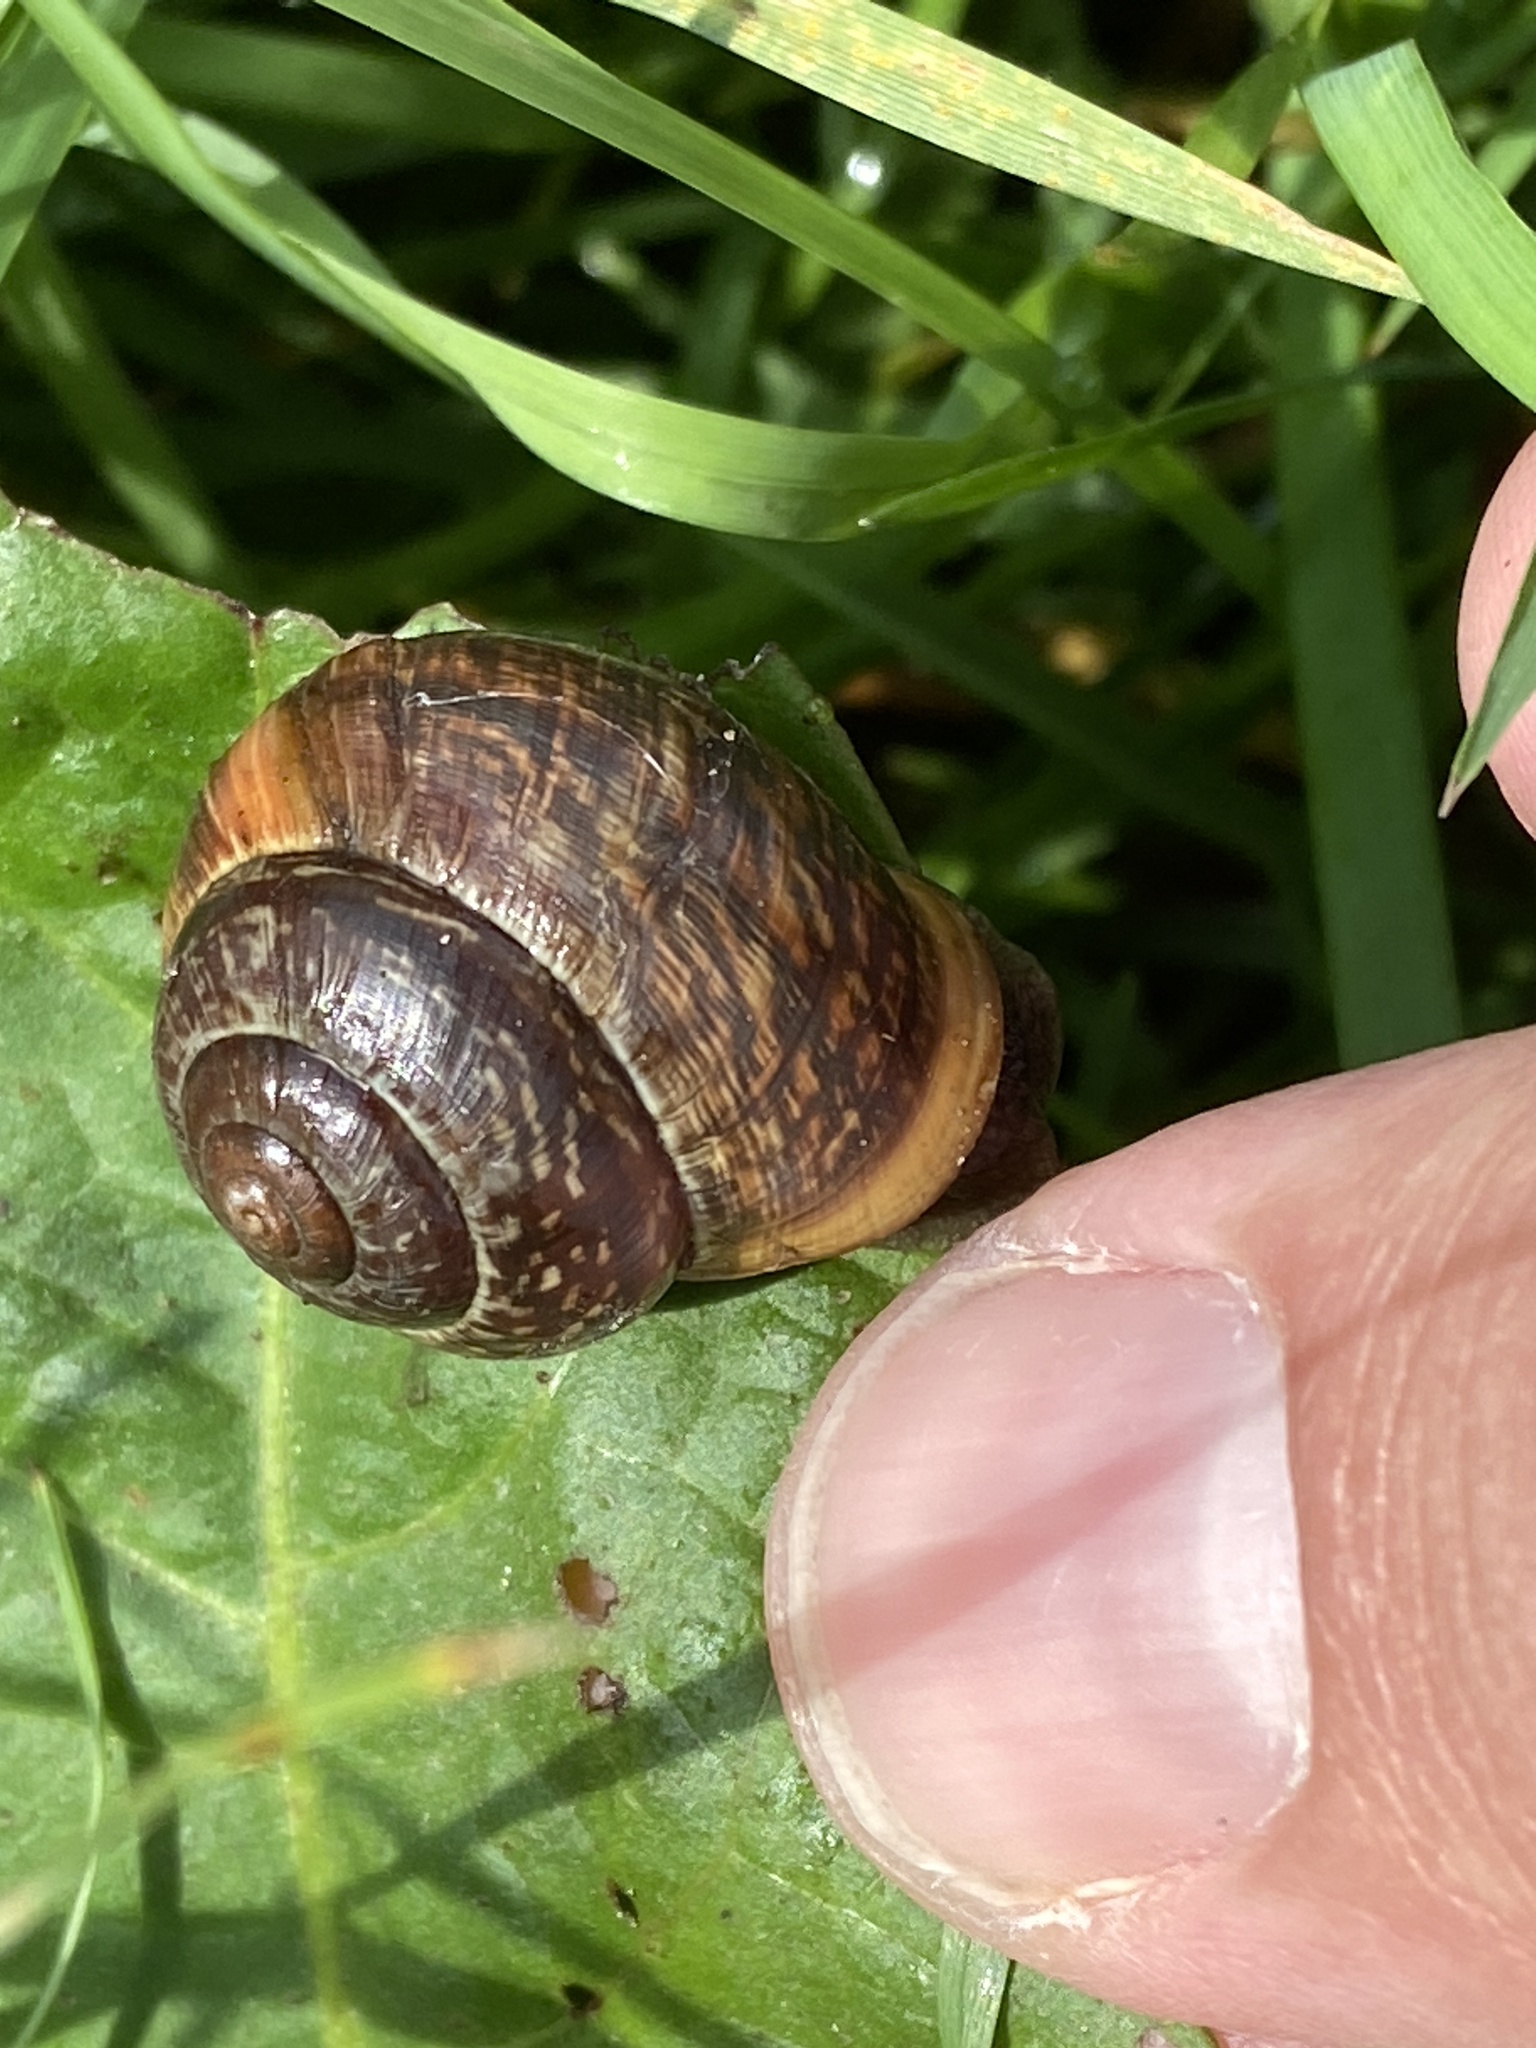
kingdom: Animalia
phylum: Mollusca
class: Gastropoda
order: Stylommatophora
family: Helicidae
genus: Arianta
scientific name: Arianta arbustorum
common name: Copse snail
